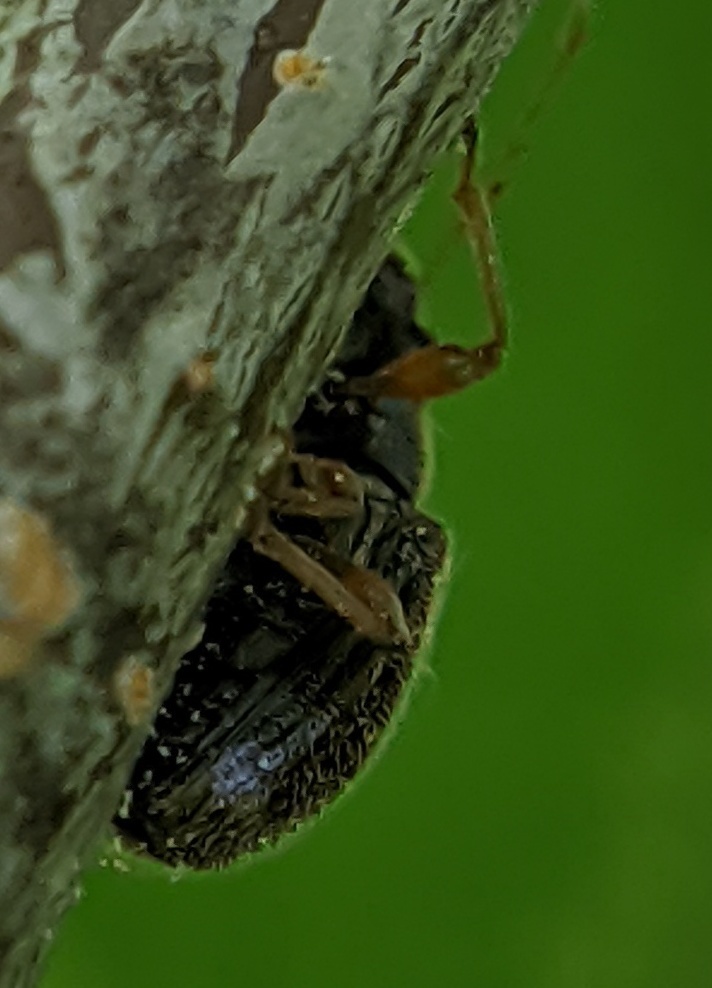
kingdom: Animalia
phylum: Arthropoda
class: Insecta
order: Coleoptera
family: Curculionidae
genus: Phyllobius
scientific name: Phyllobius oblongus
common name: Brown leaf weevil
